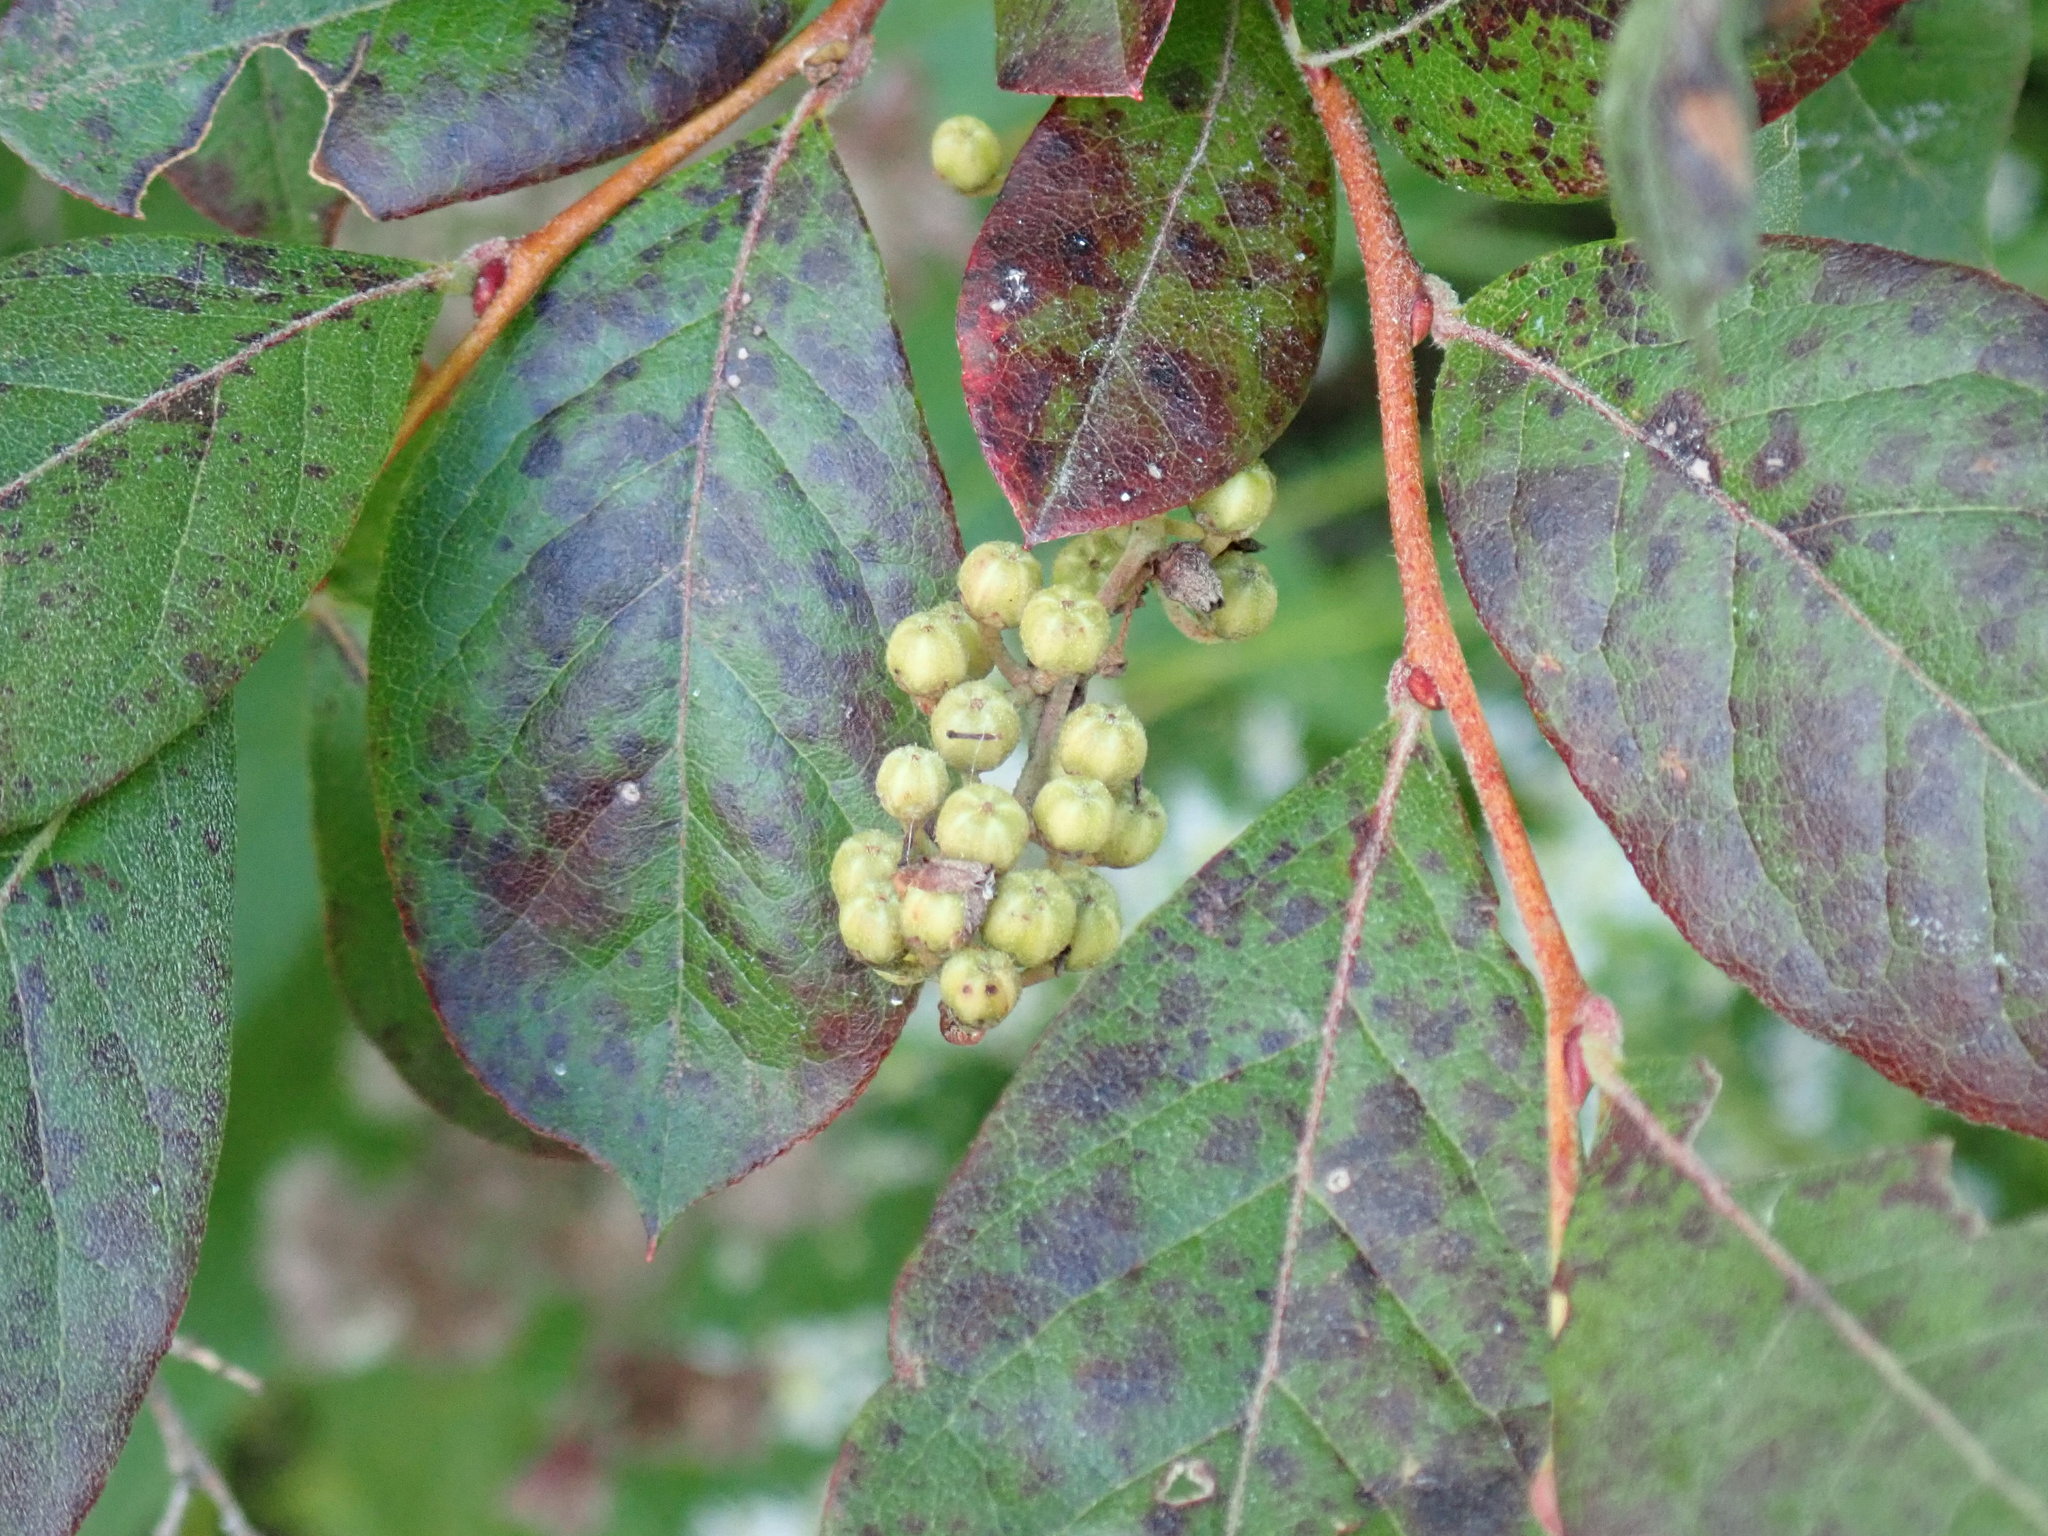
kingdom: Plantae
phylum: Tracheophyta
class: Magnoliopsida
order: Ericales
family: Ericaceae
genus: Lyonia
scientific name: Lyonia ligustrina
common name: Maleberry
